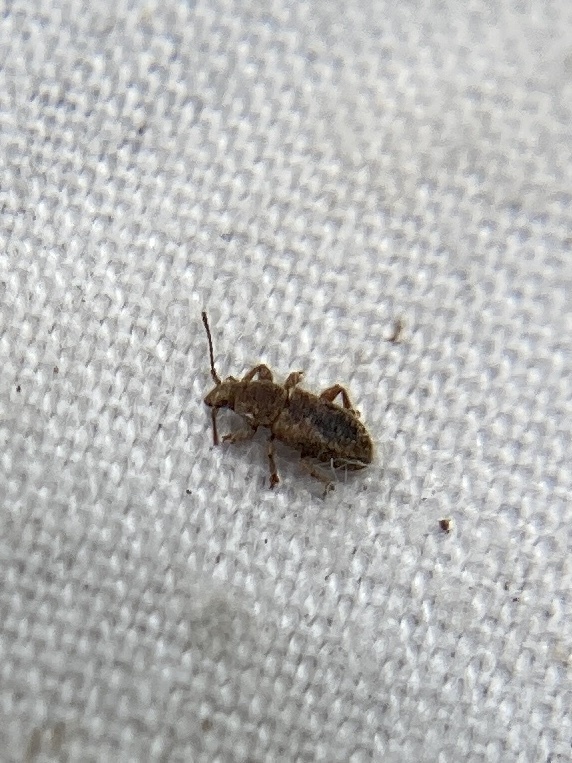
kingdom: Animalia
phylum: Arthropoda
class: Insecta
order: Coleoptera
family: Belidae
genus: Proterhinus
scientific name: Proterhinus samoae
